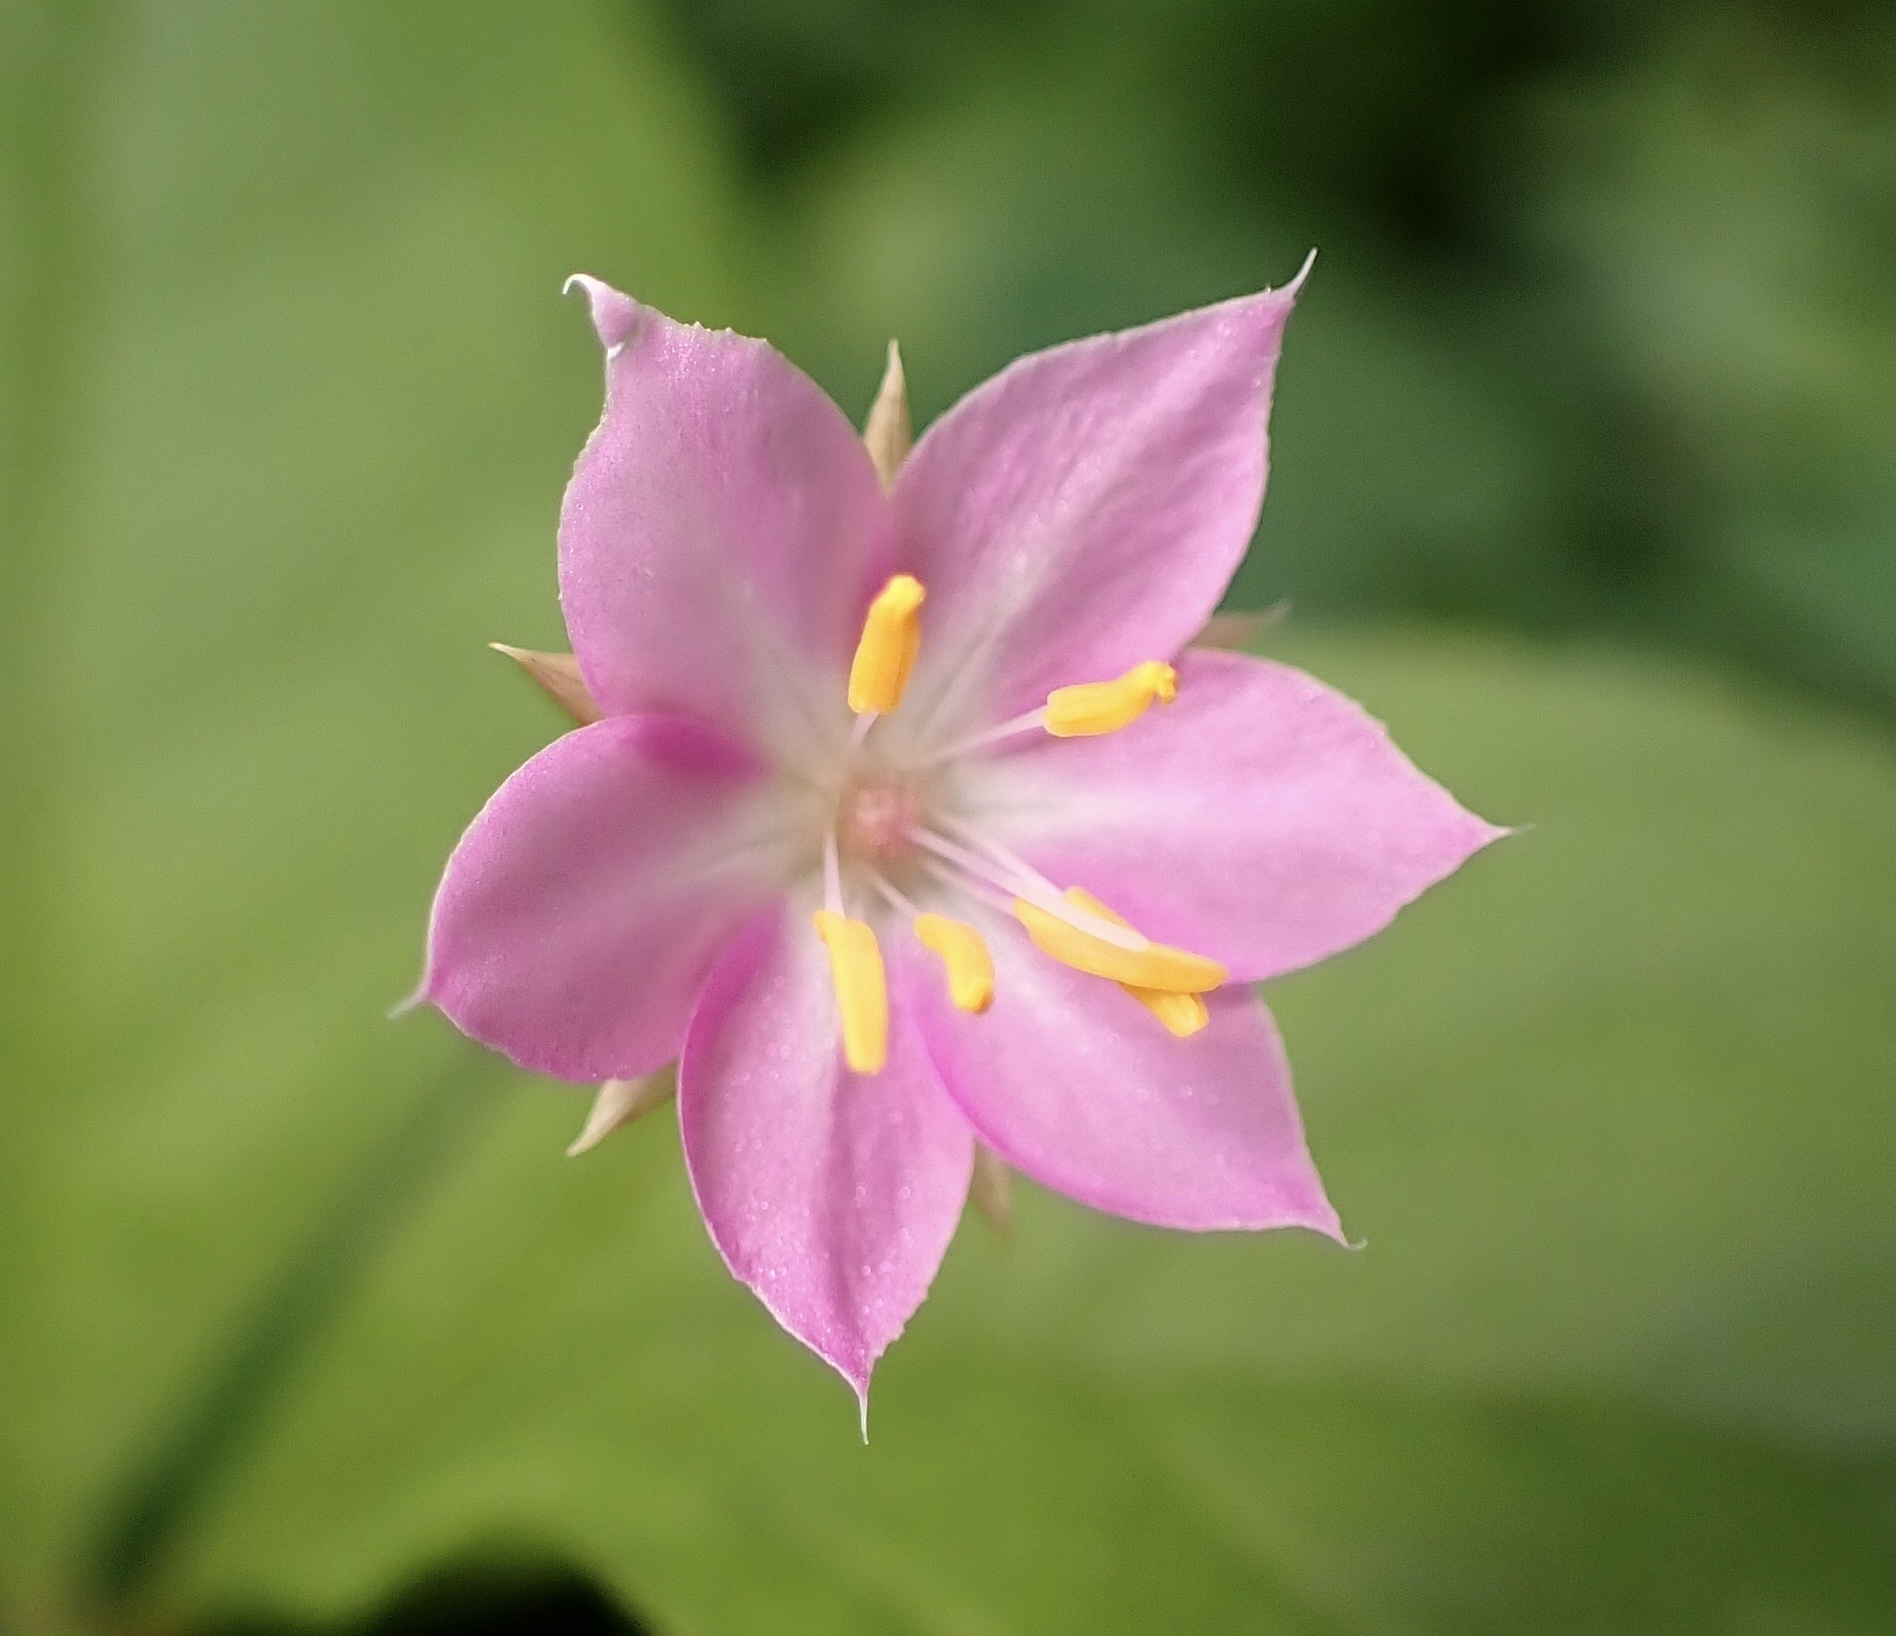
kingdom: Plantae
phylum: Tracheophyta
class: Magnoliopsida
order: Ericales
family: Primulaceae
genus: Lysimachia
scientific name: Lysimachia latifolia
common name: Pacific starflower
